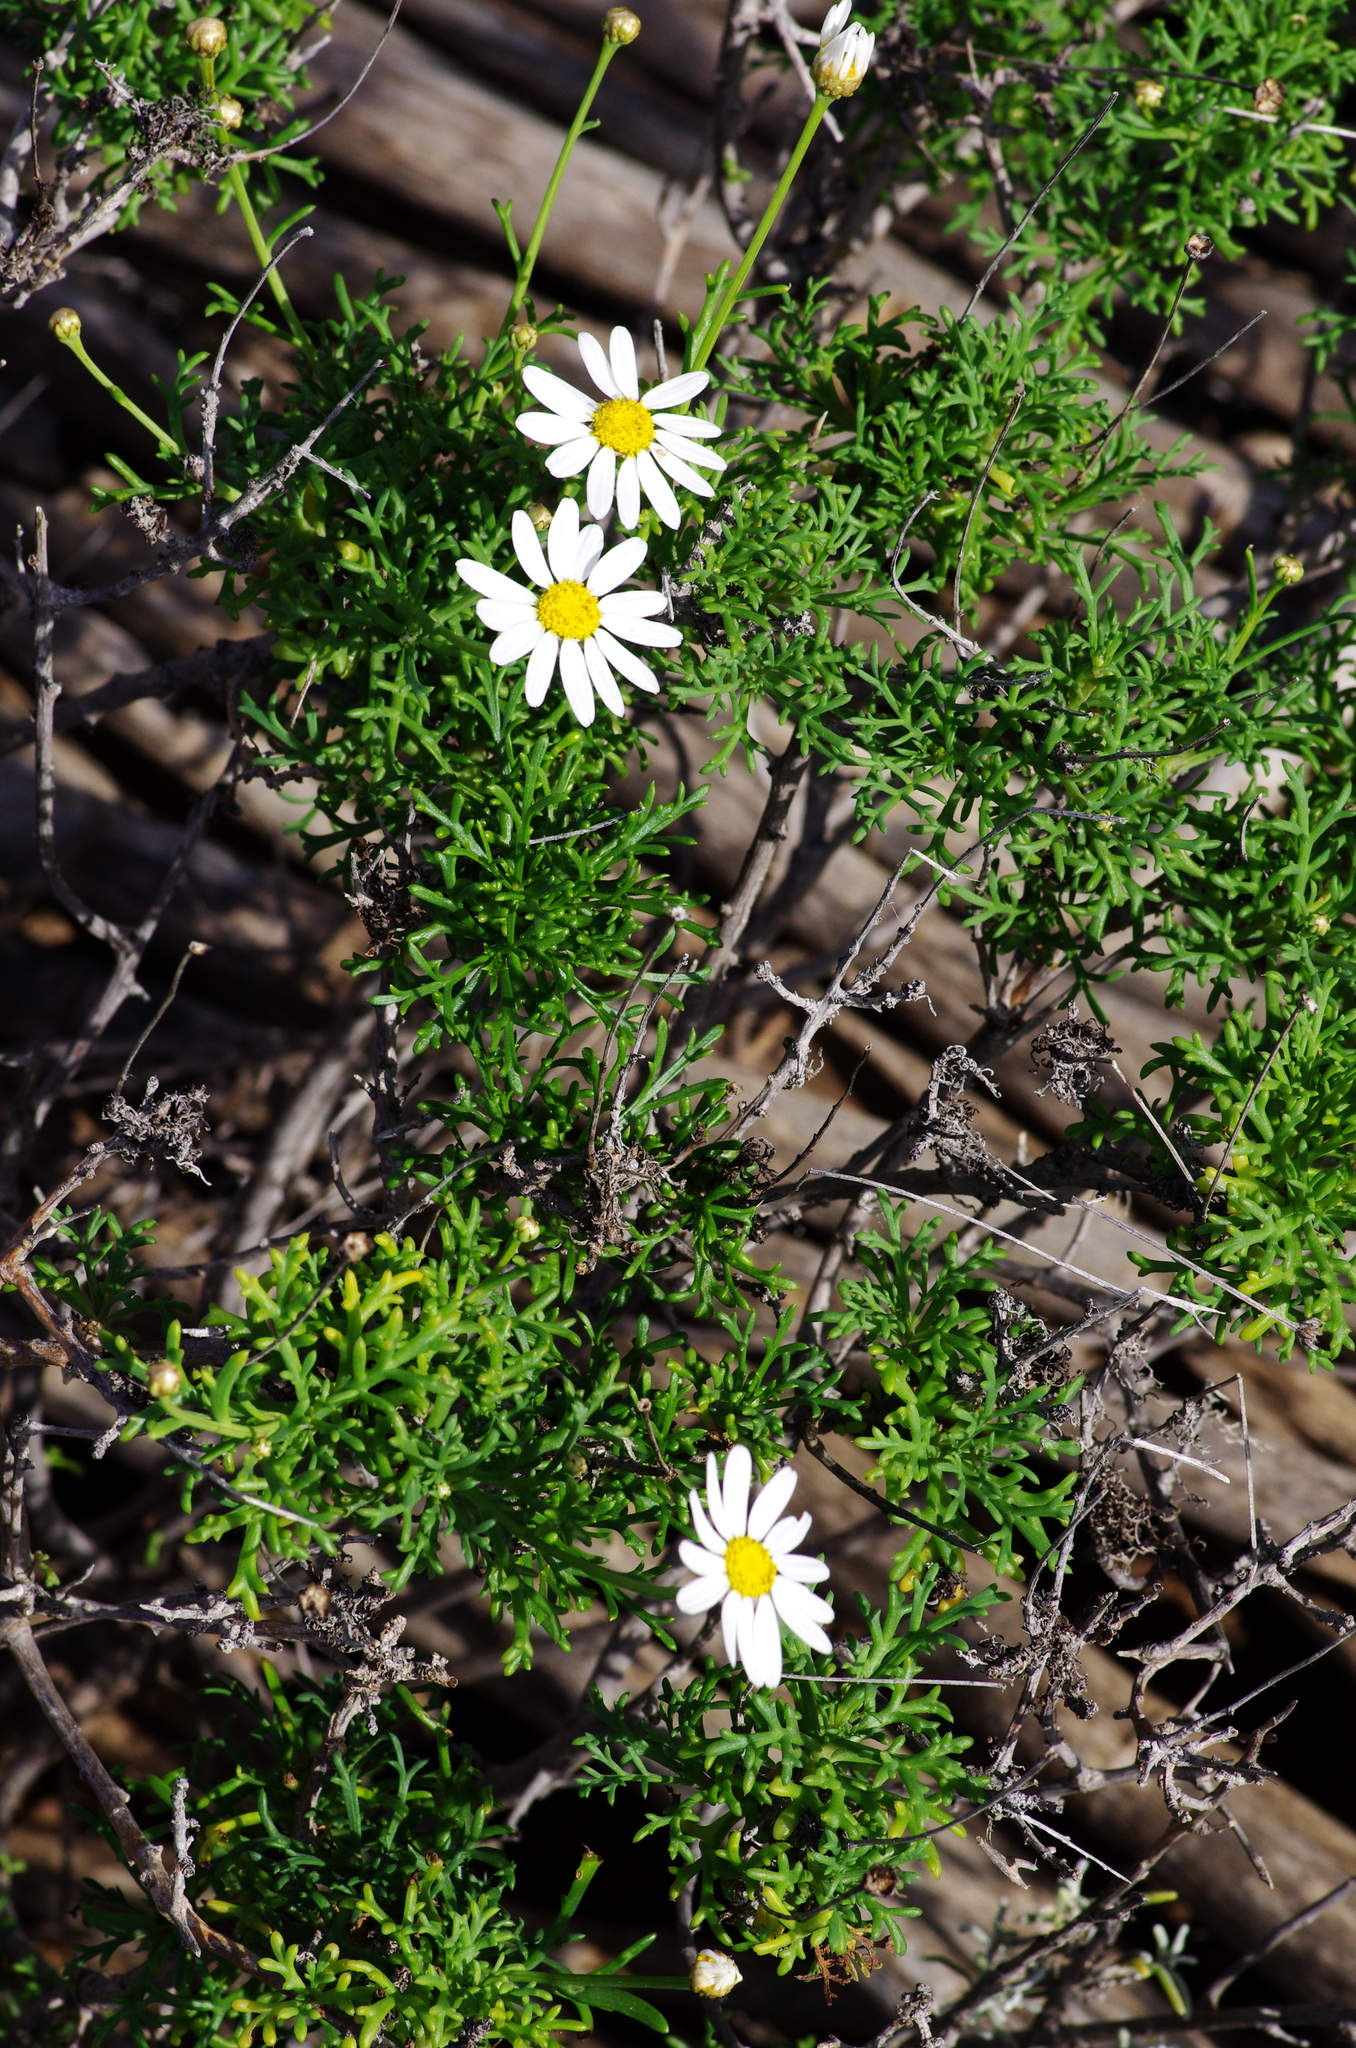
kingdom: Plantae
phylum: Tracheophyta
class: Magnoliopsida
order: Asterales
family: Asteraceae
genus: Argyranthemum
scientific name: Argyranthemum frutescens
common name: Paris daisy
